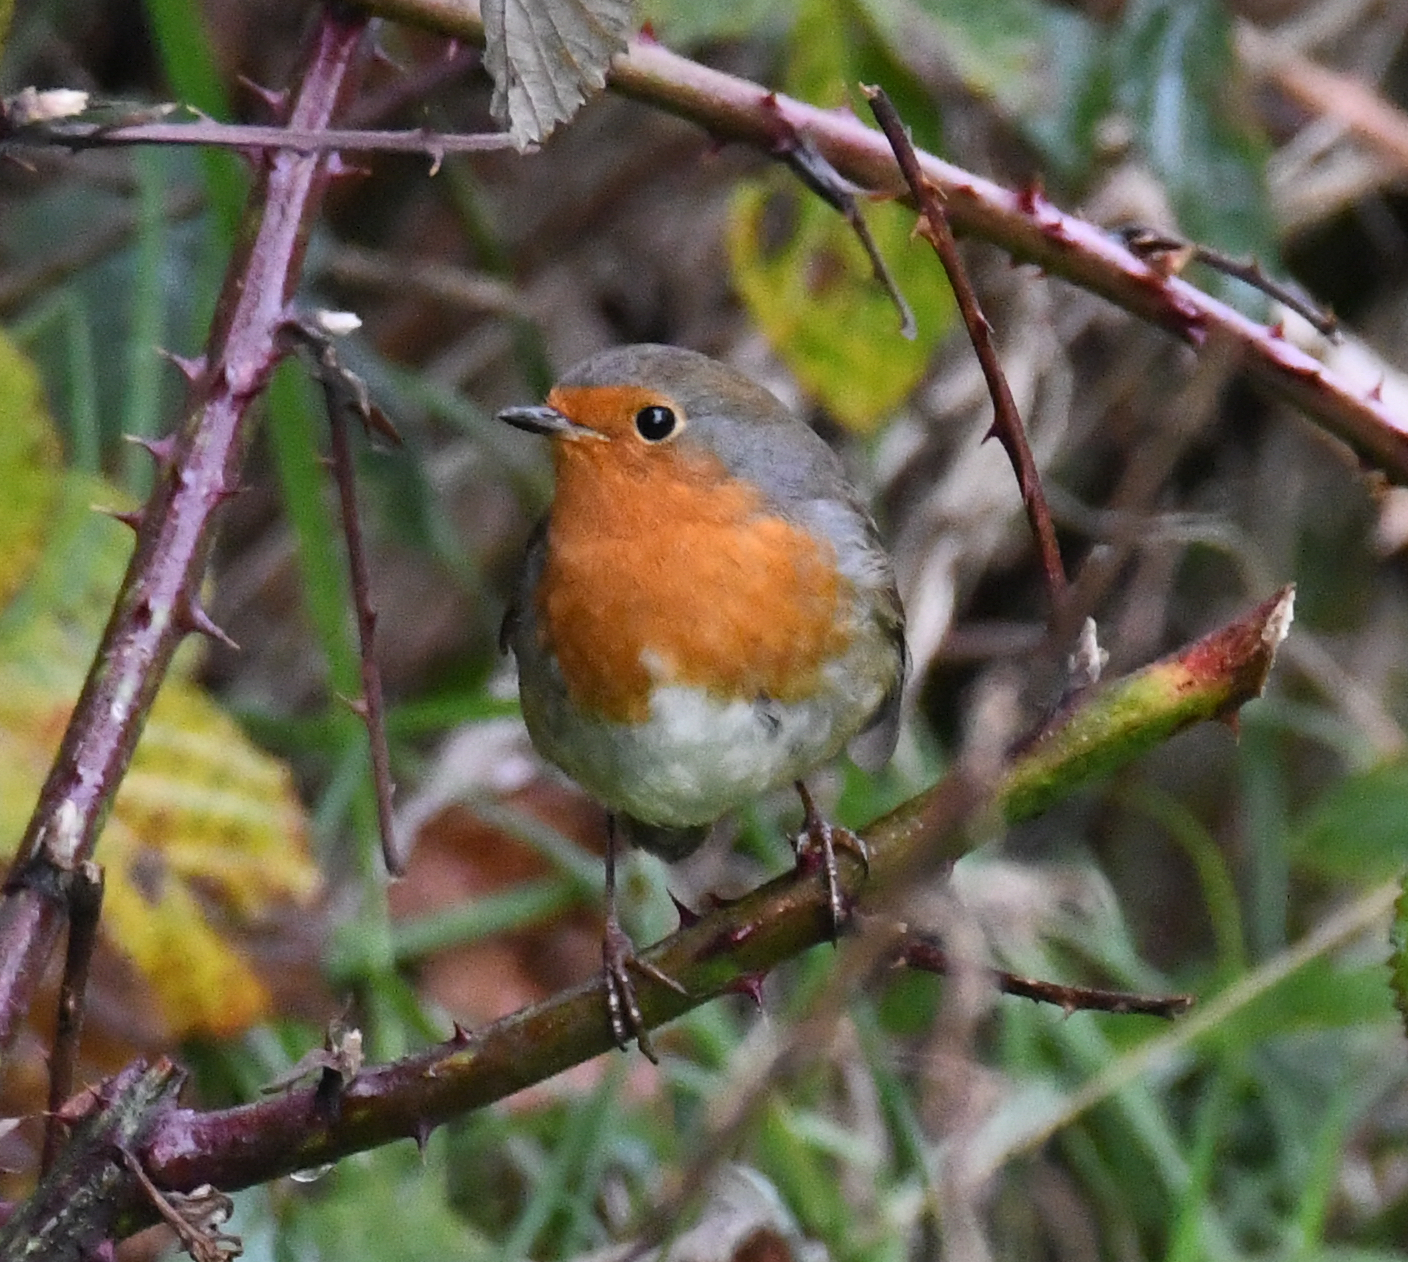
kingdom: Animalia
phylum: Chordata
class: Aves
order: Passeriformes
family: Muscicapidae
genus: Erithacus
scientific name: Erithacus rubecula
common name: European robin
